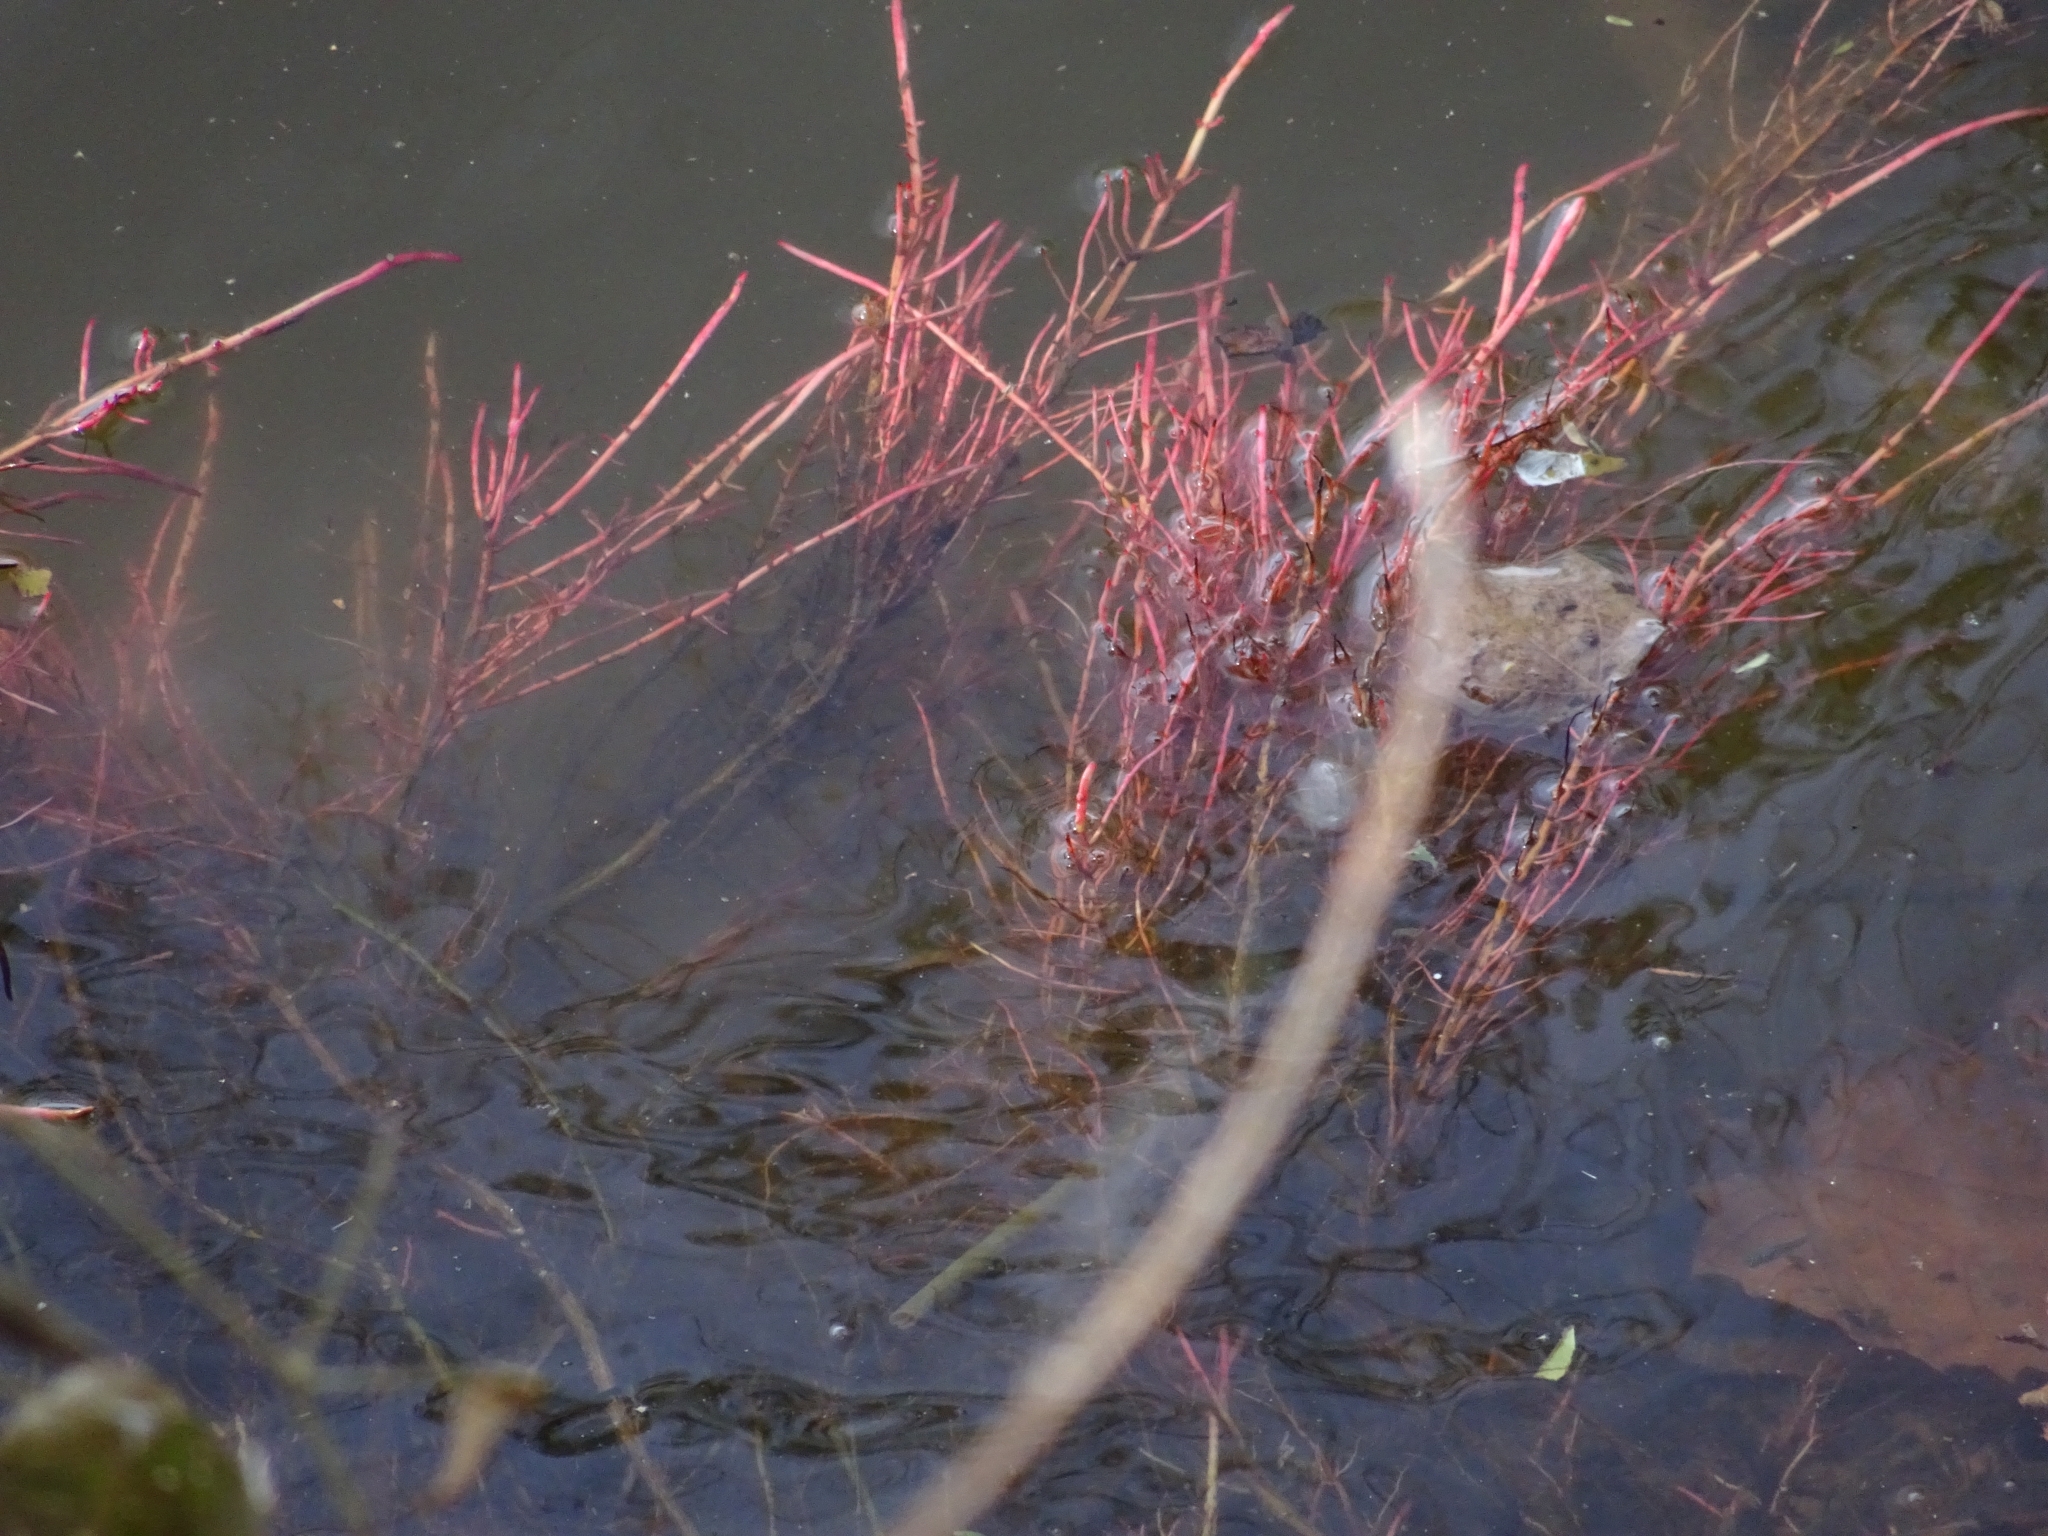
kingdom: Plantae
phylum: Tracheophyta
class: Magnoliopsida
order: Myrtales
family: Onagraceae
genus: Ludwigia
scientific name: Ludwigia peploides
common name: Floating primrose-willow
